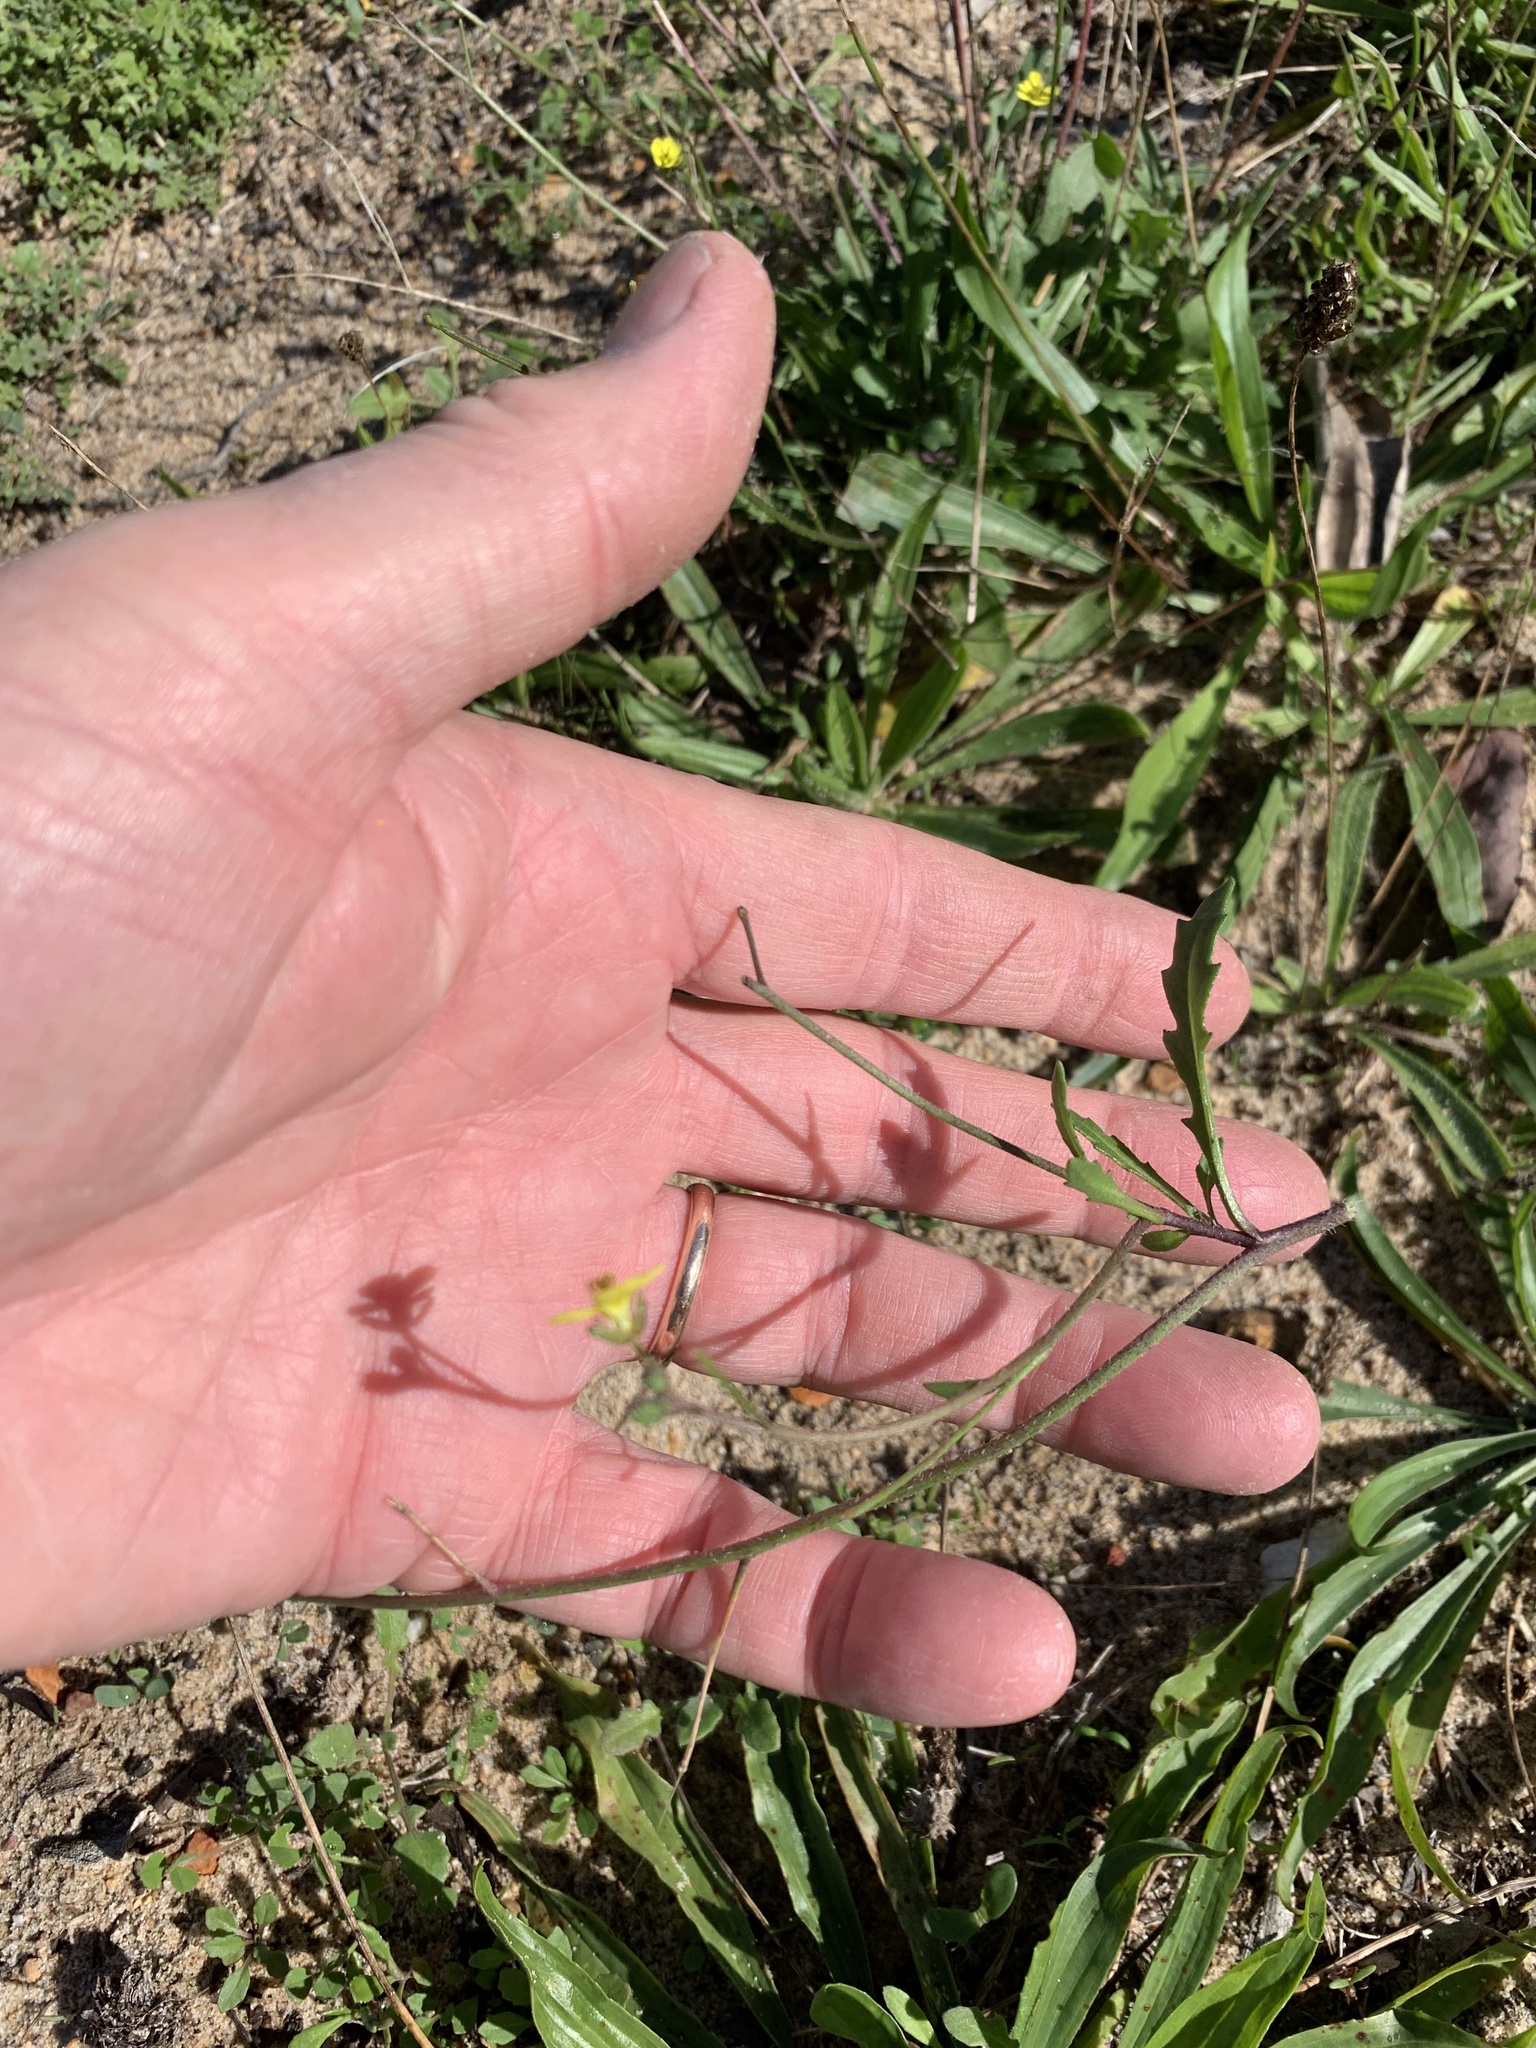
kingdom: Plantae
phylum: Tracheophyta
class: Magnoliopsida
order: Brassicales
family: Brassicaceae
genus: Diplotaxis
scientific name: Diplotaxis muralis
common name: Annual wall-rocket
